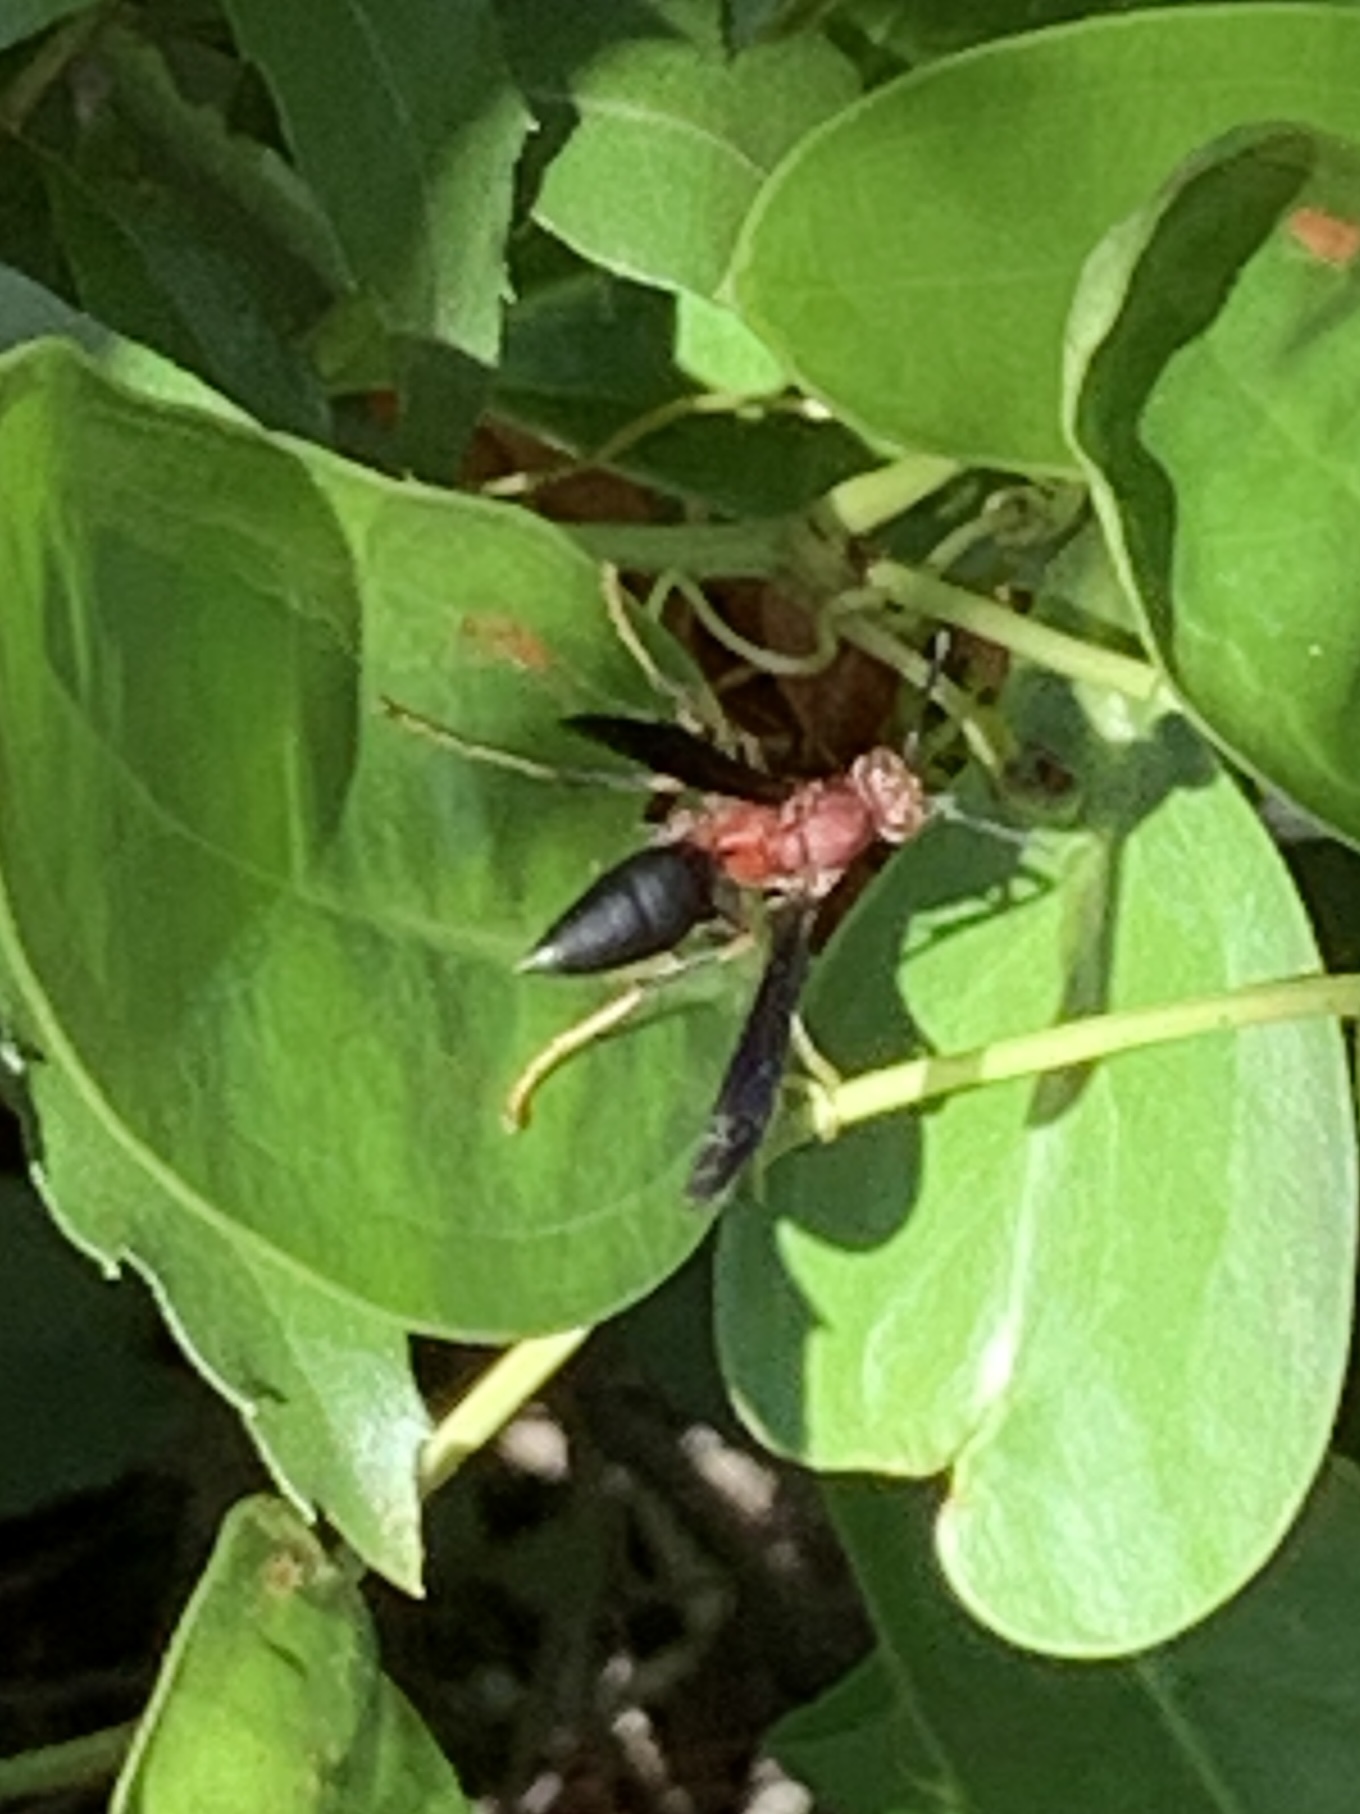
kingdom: Animalia
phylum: Arthropoda
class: Insecta
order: Hymenoptera
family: Eumenidae
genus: Polistes
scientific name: Polistes metricus
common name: Metric paper wasp
